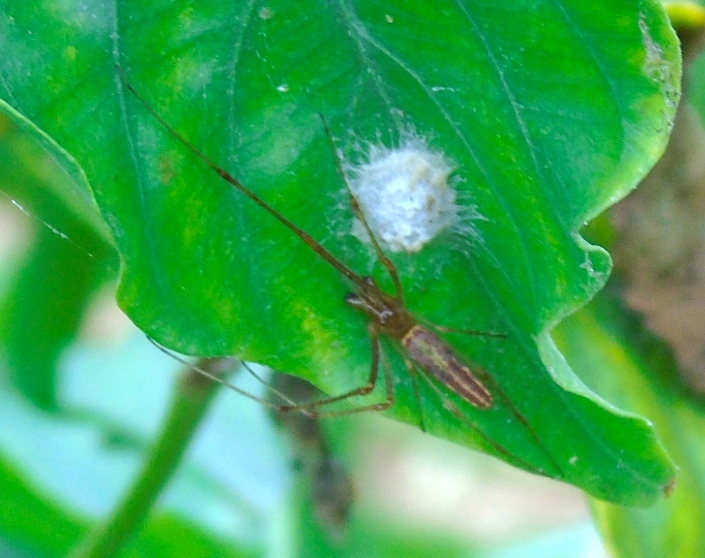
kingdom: Animalia
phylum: Arthropoda
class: Arachnida
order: Araneae
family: Tetragnathidae
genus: Tetragnatha
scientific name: Tetragnatha
